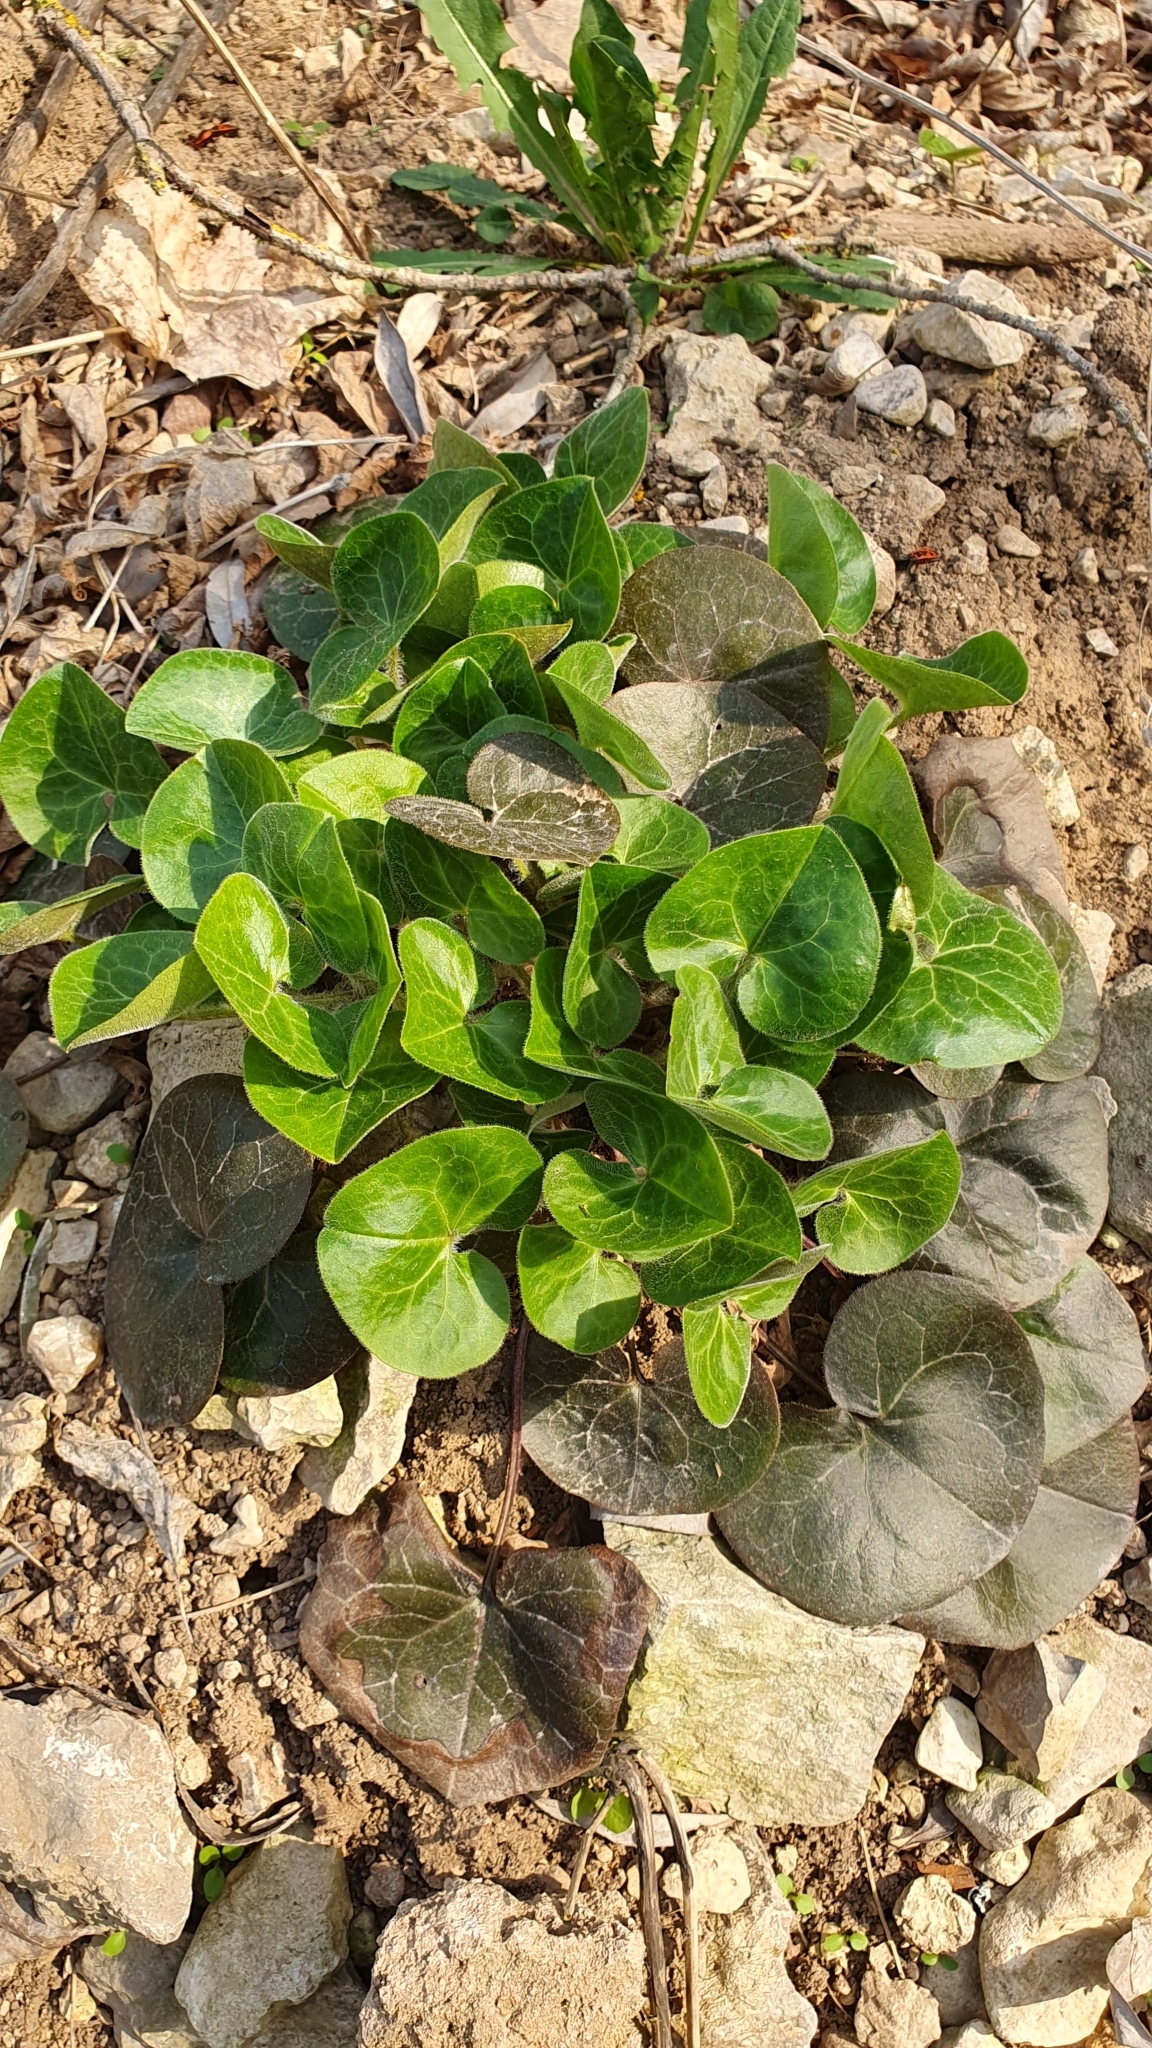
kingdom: Plantae
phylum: Tracheophyta
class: Magnoliopsida
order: Piperales
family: Aristolochiaceae
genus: Asarum
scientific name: Asarum europaeum
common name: Asarabacca
